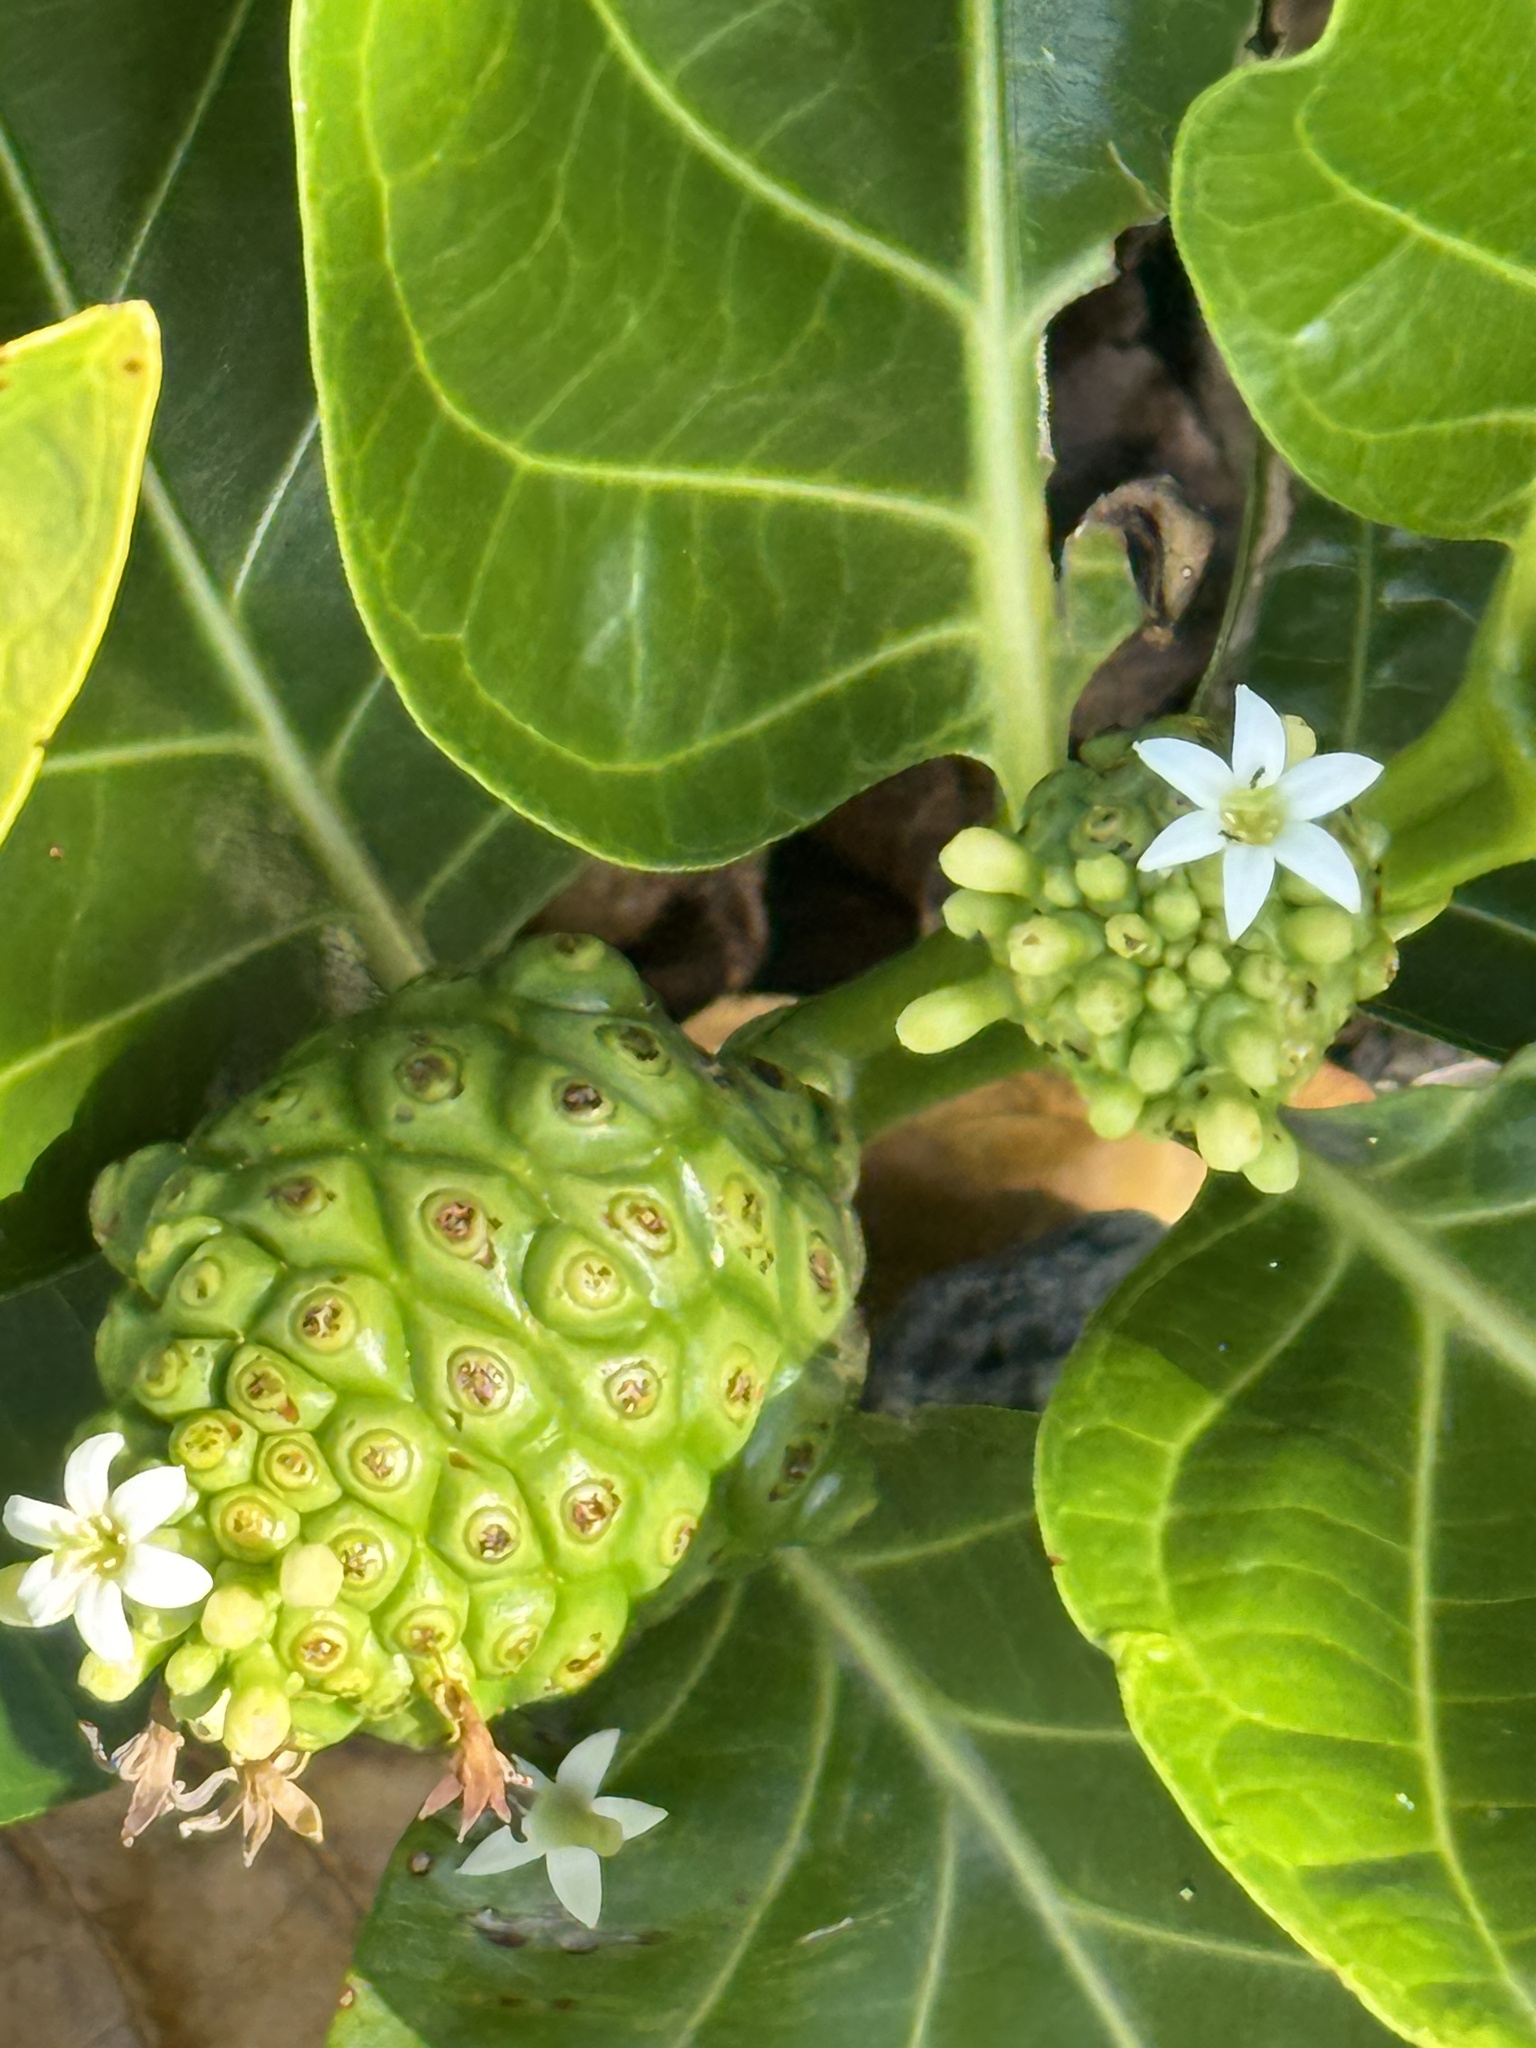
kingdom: Plantae
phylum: Tracheophyta
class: Magnoliopsida
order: Gentianales
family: Rubiaceae
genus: Morinda
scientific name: Morinda citrifolia
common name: Indian-mulberry
